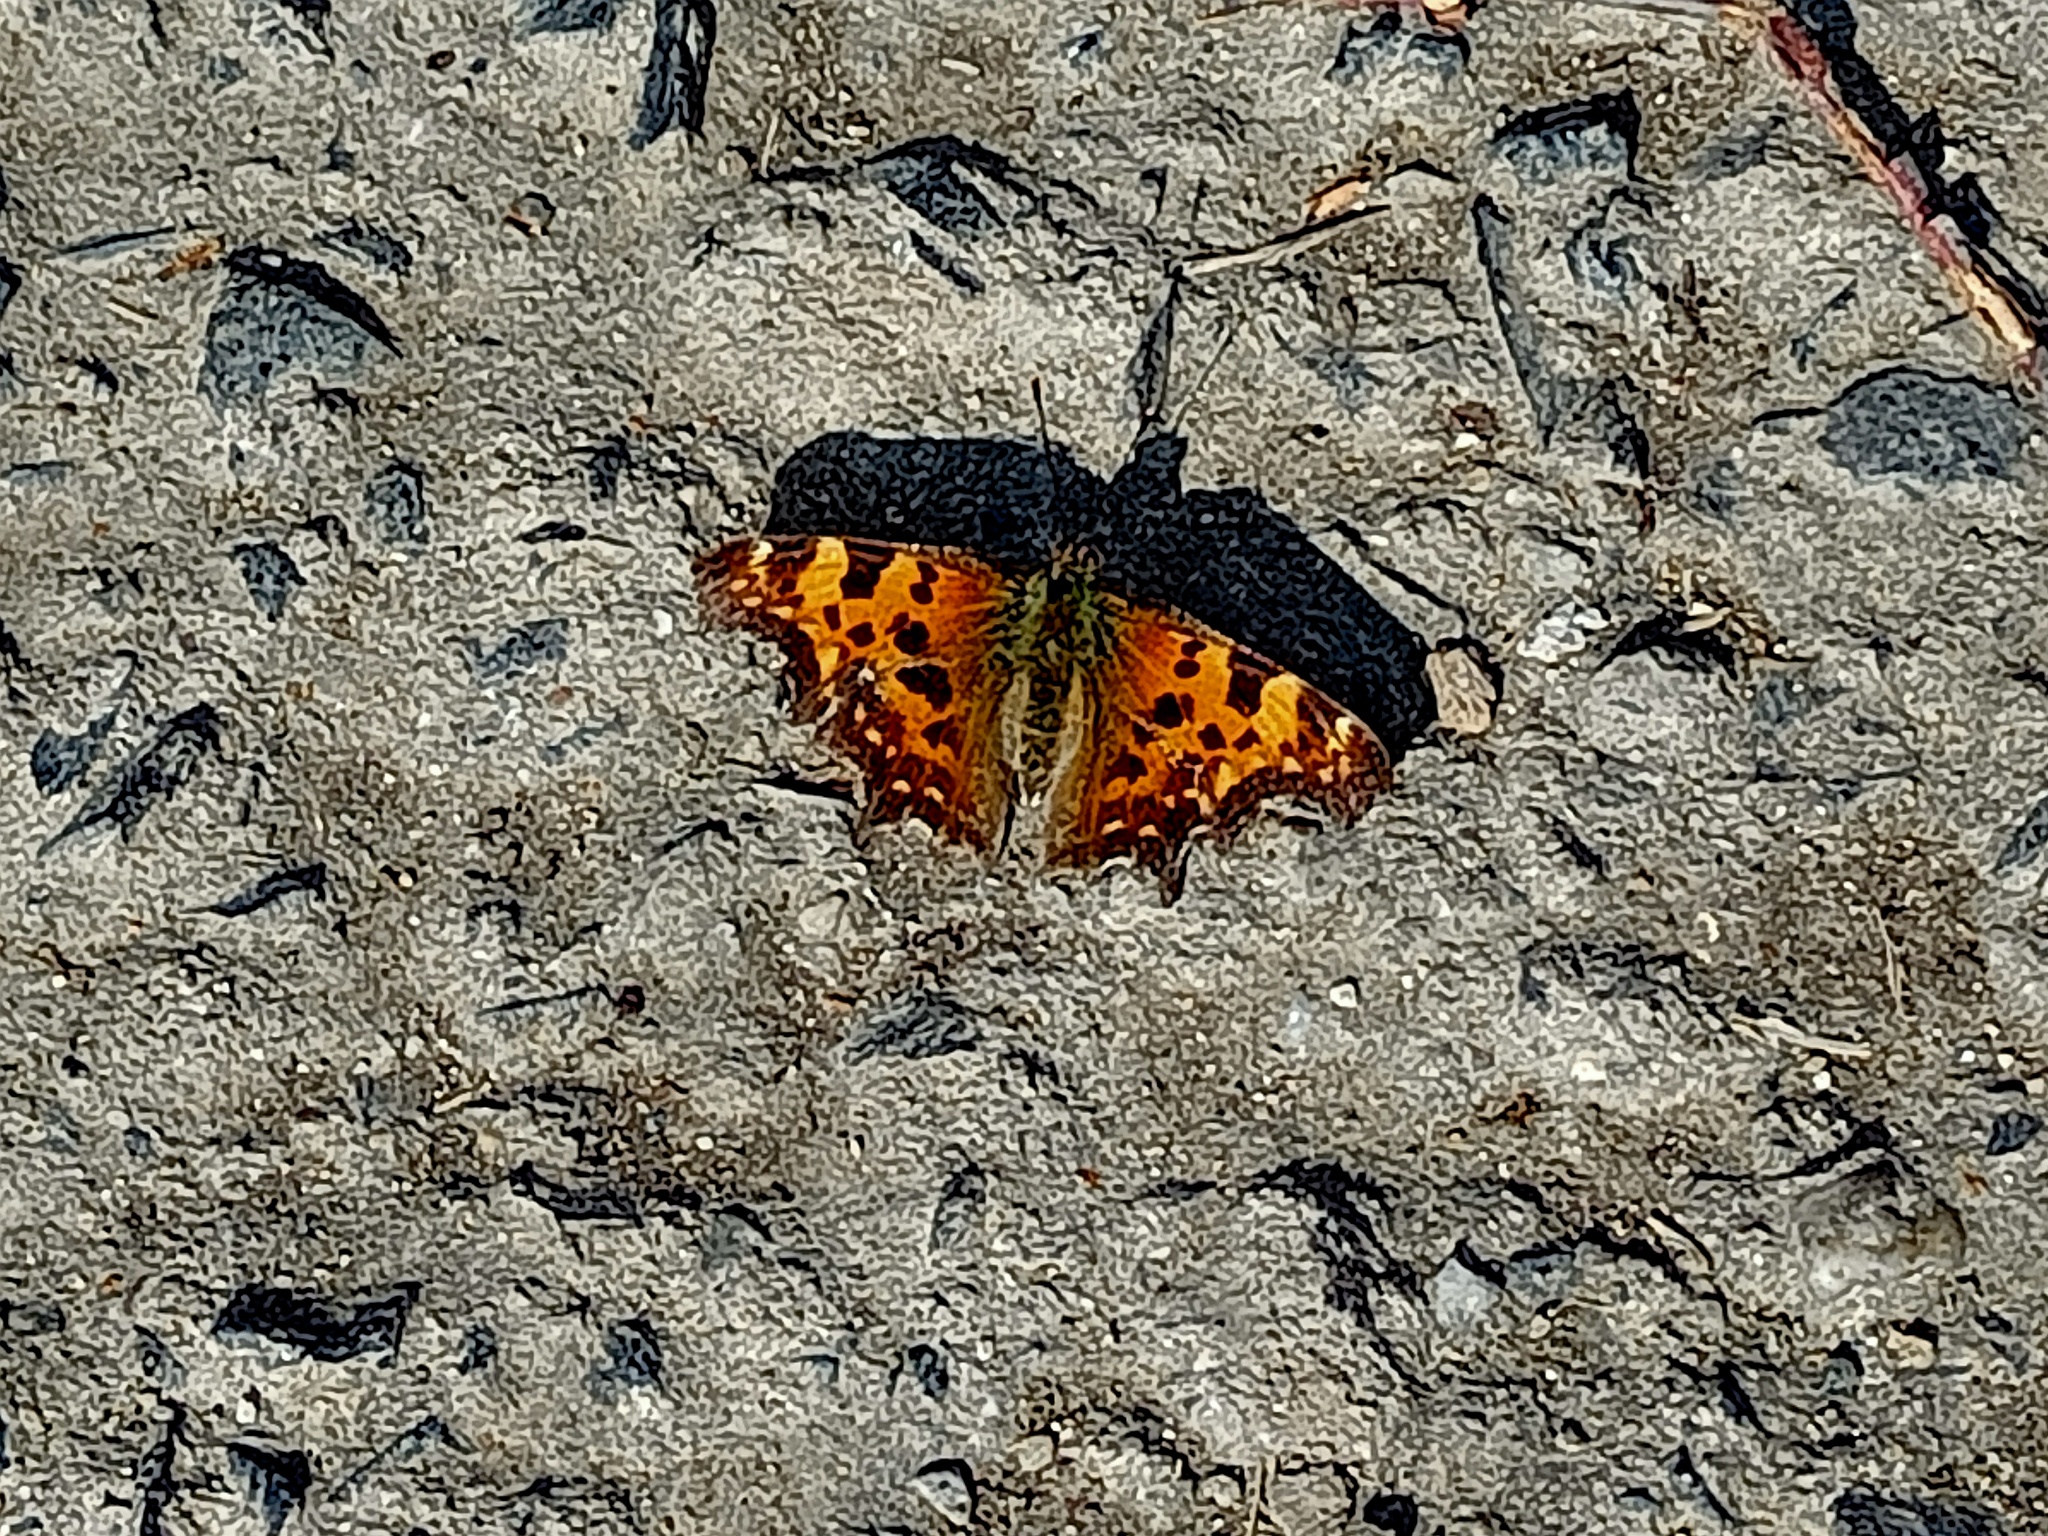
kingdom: Animalia
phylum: Arthropoda
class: Insecta
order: Lepidoptera
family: Nymphalidae
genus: Polygonia
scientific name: Polygonia c-album
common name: Comma
